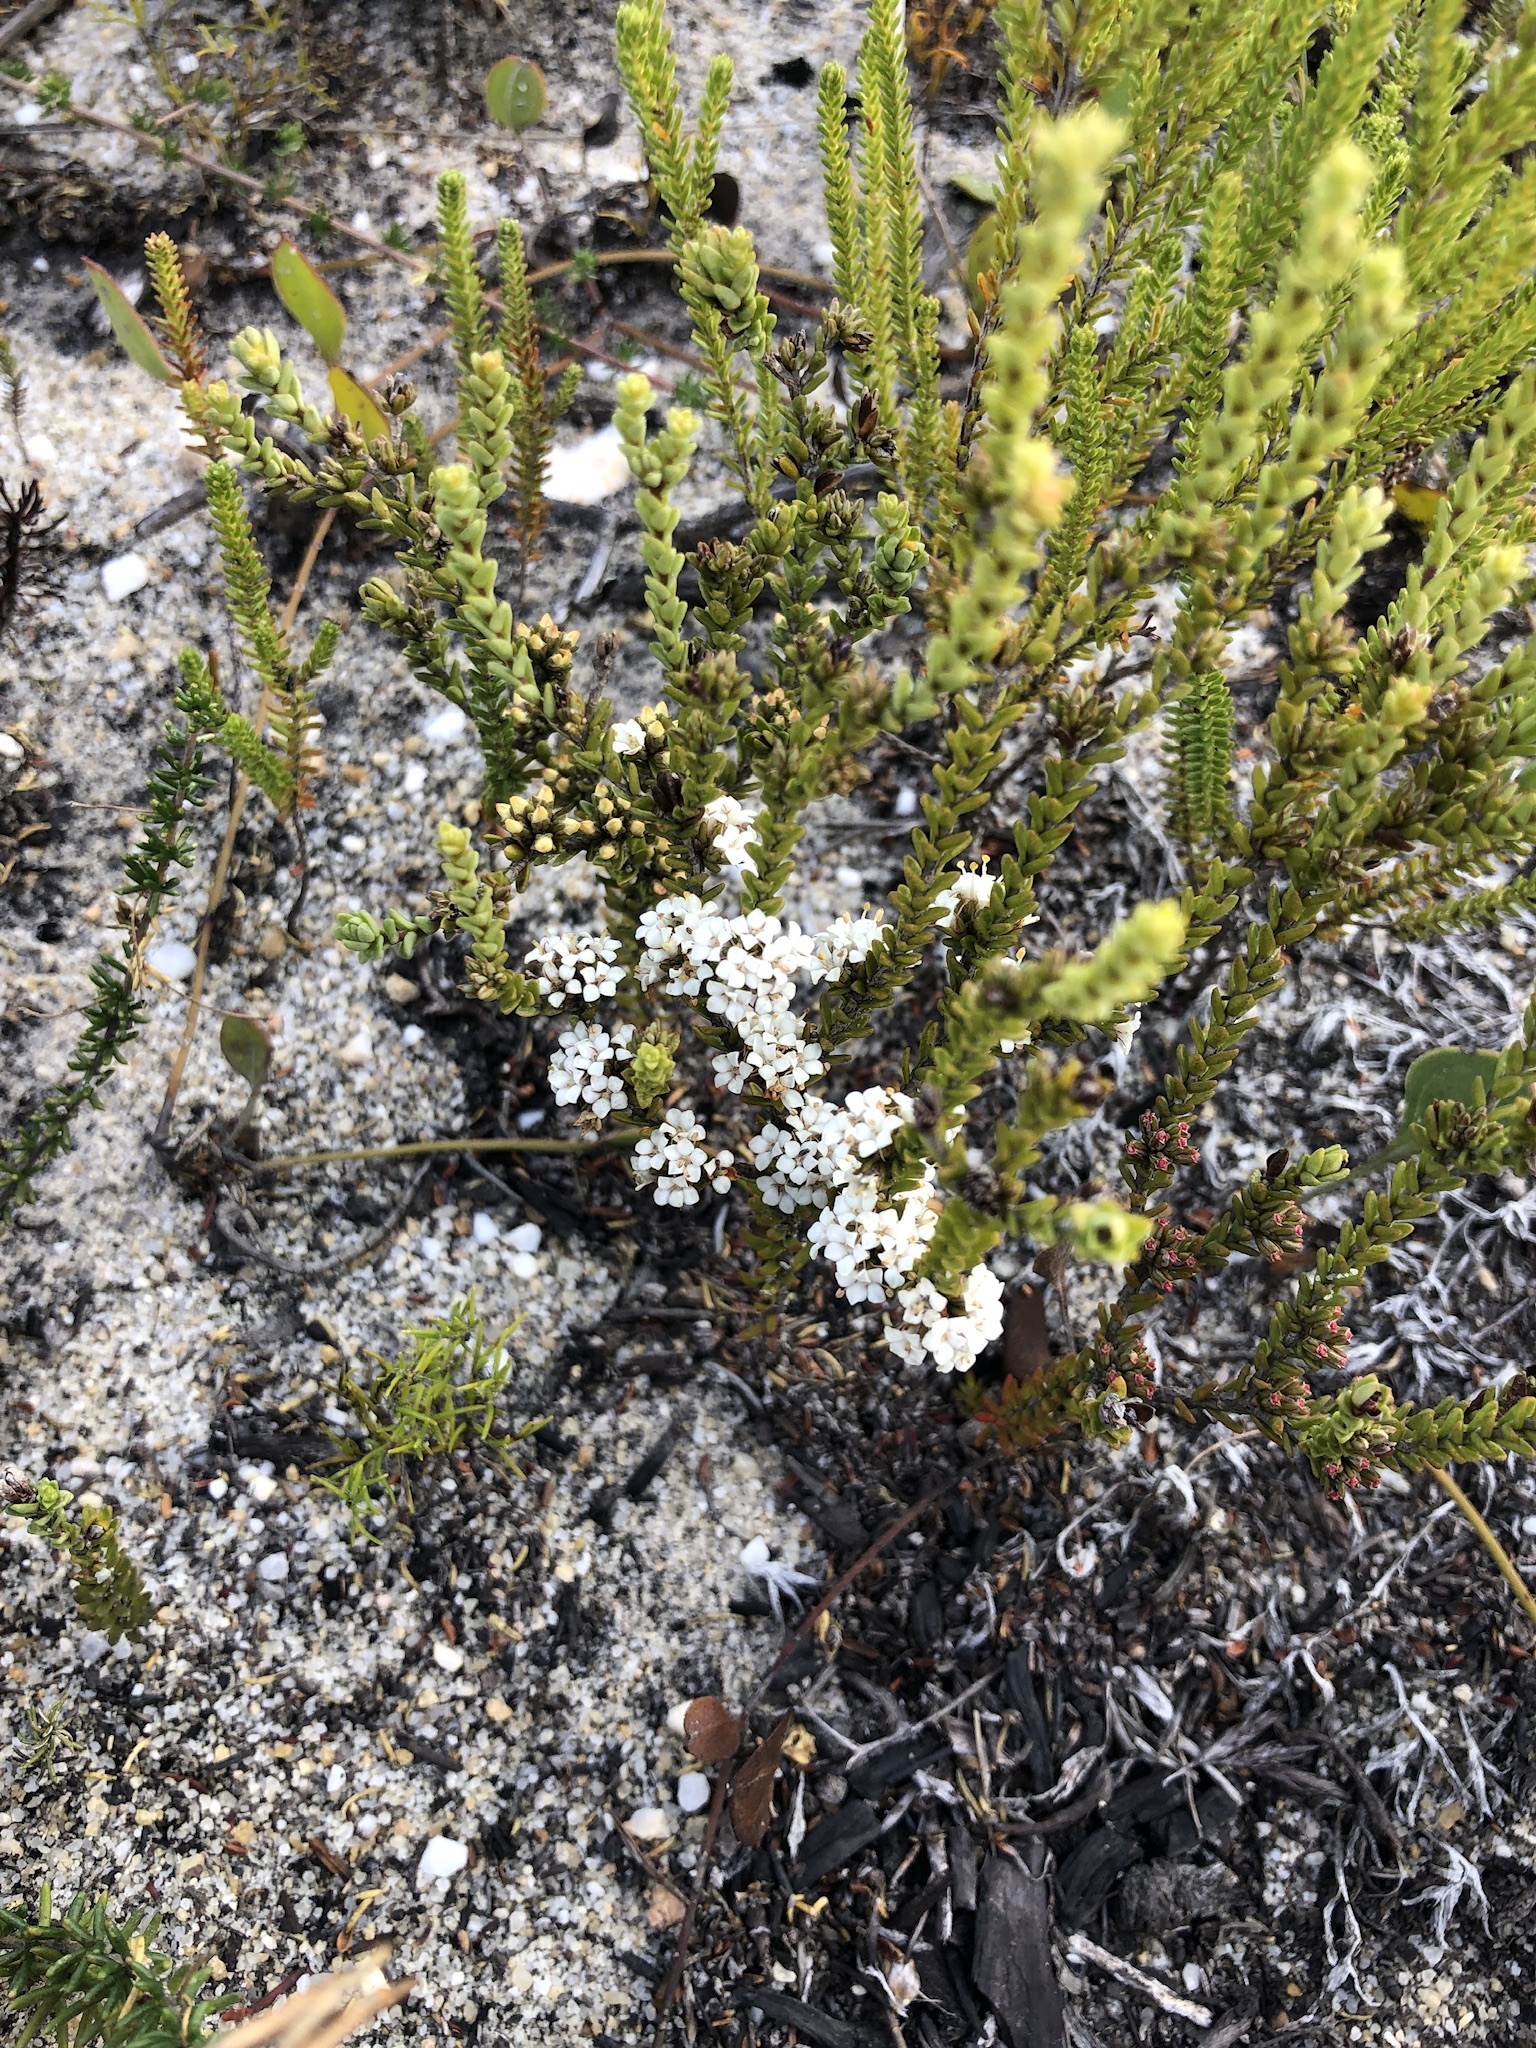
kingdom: Plantae
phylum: Tracheophyta
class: Magnoliopsida
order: Sapindales
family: Rutaceae
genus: Macrostylis
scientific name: Macrostylis cauliflora
